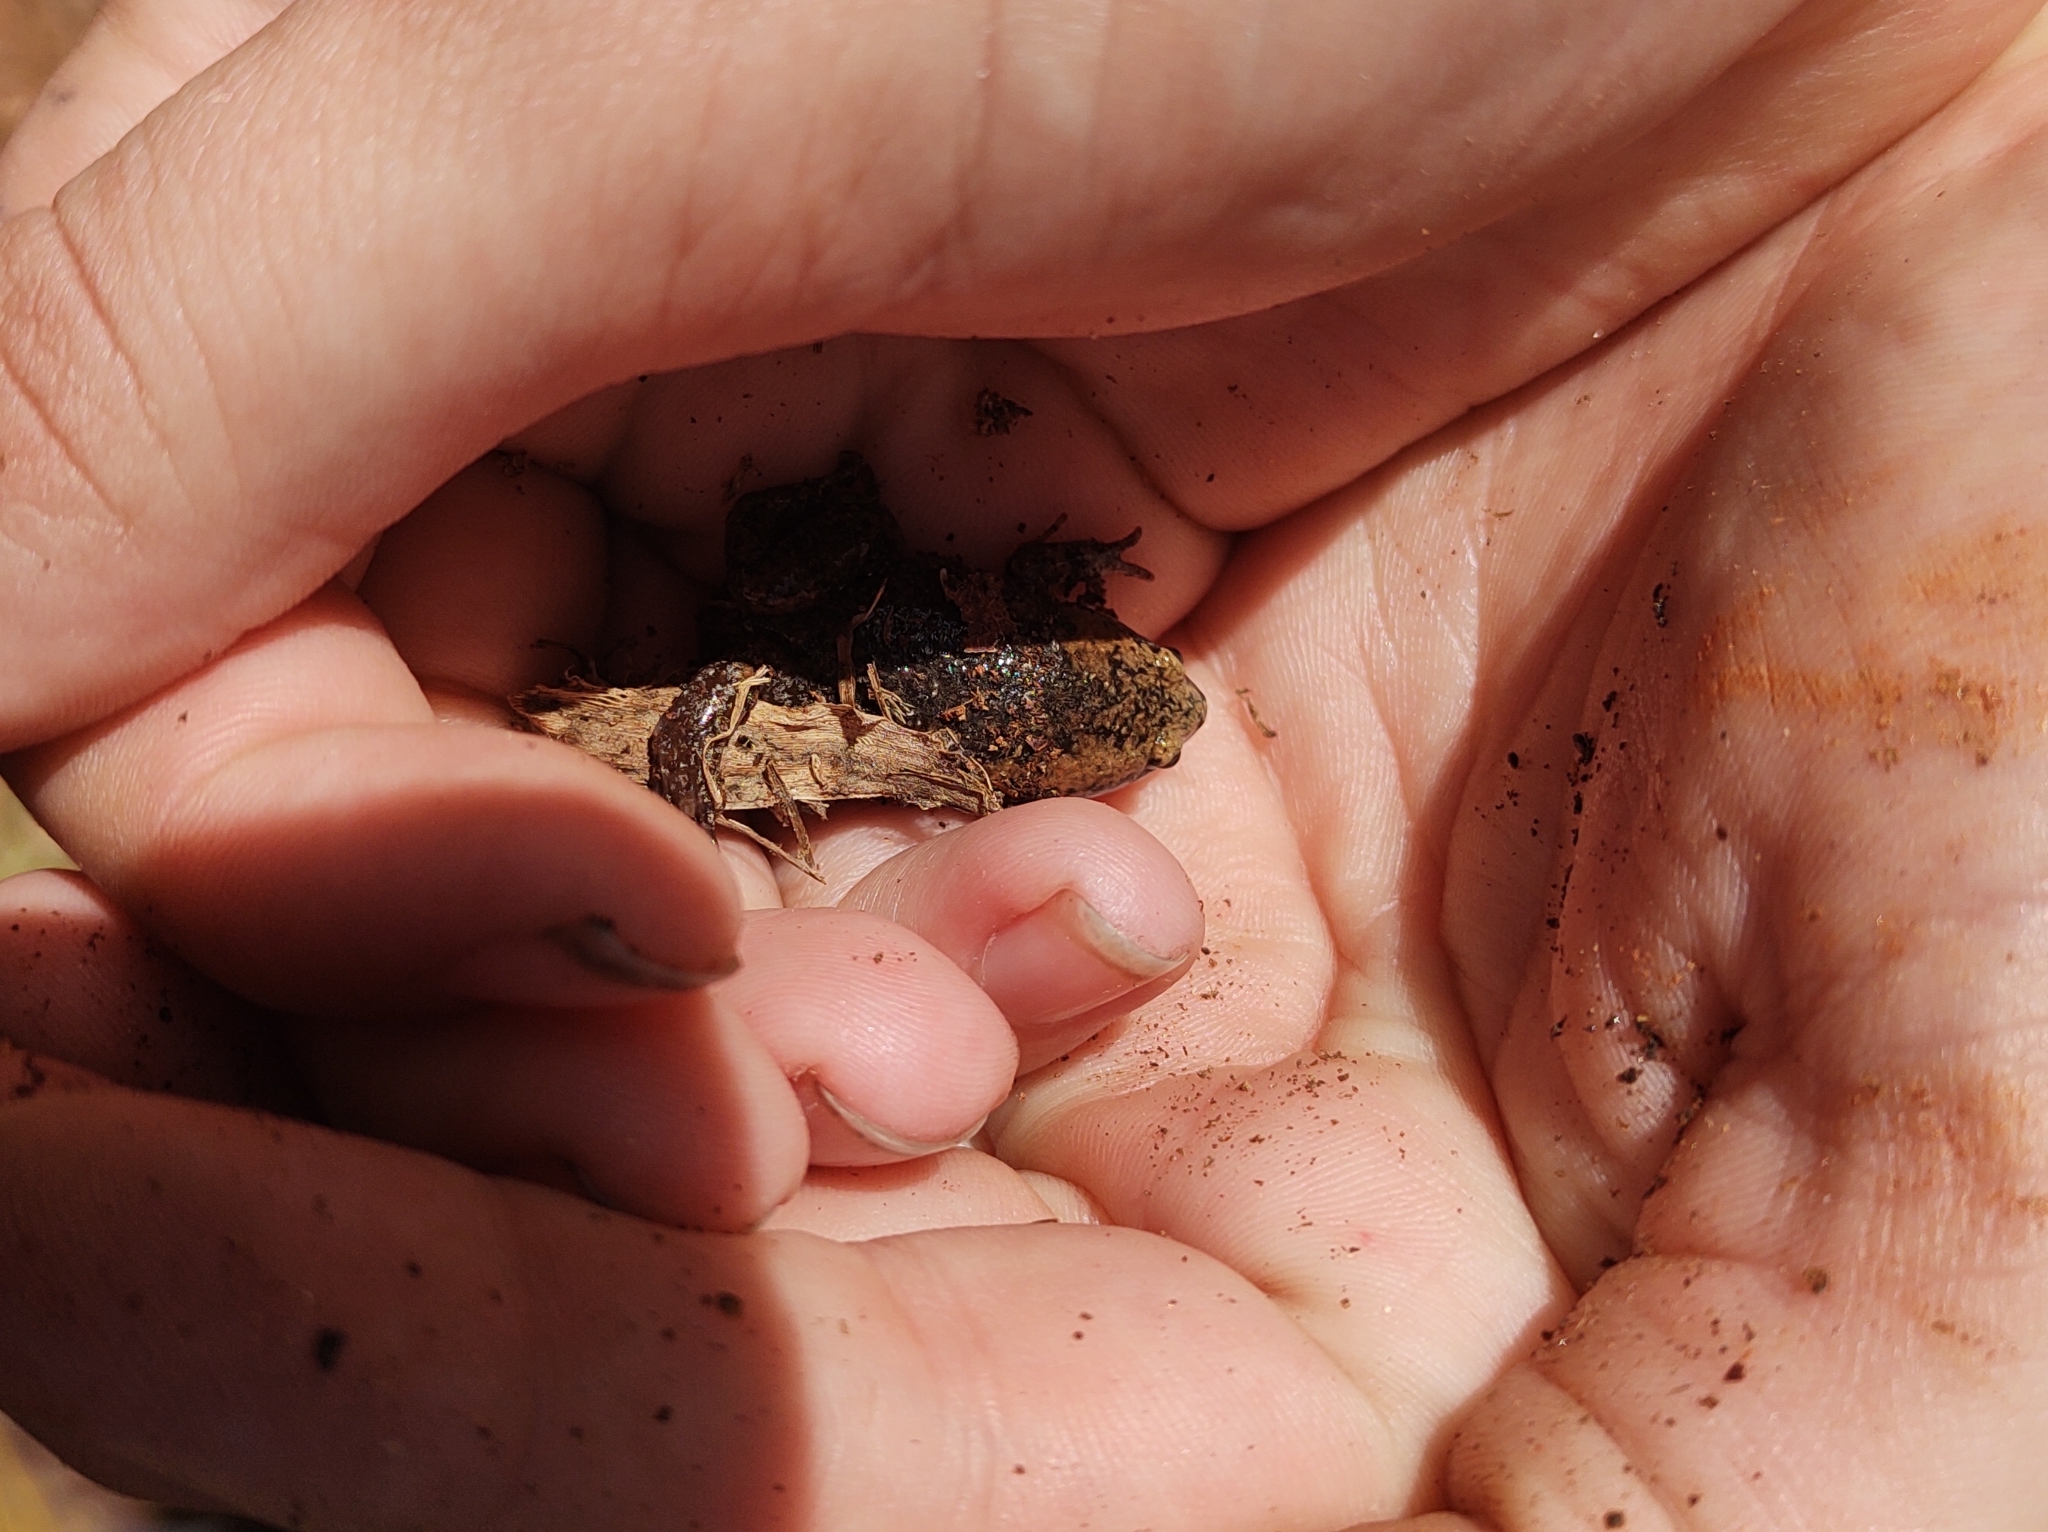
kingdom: Animalia
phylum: Chordata
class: Amphibia
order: Anura
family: Microhylidae
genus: Gastrophryne
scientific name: Gastrophryne carolinensis
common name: Eastern narrowmouth toad
